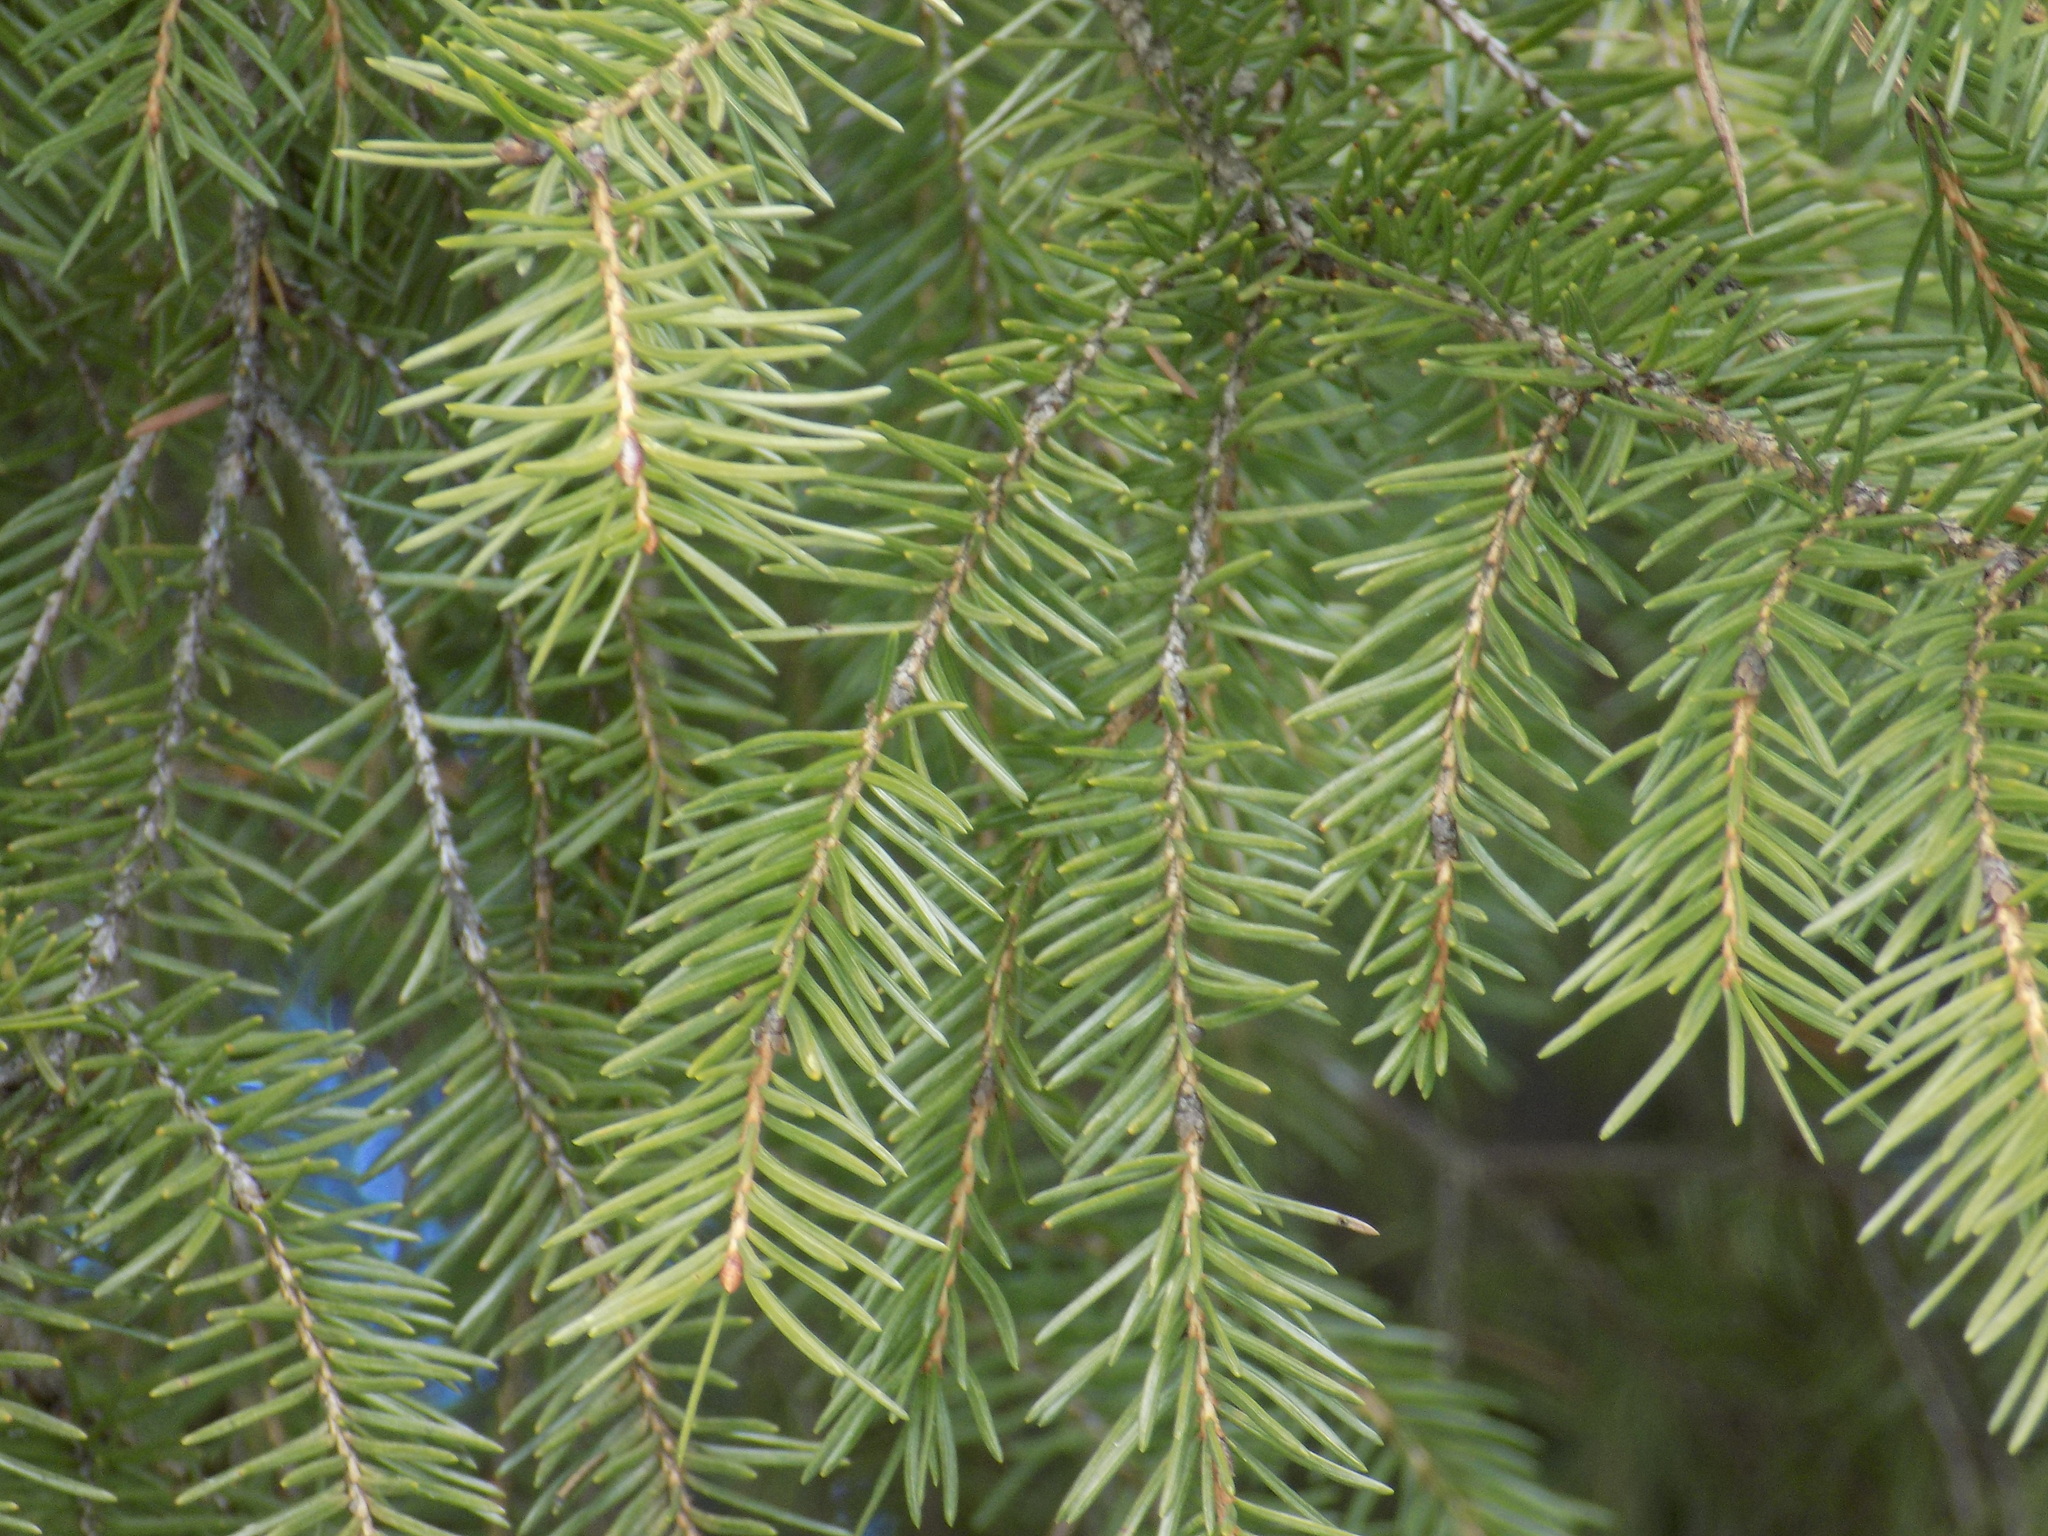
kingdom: Plantae
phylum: Tracheophyta
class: Pinopsida
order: Pinales
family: Pinaceae
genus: Abies
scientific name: Abies sibirica
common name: Siberian fir
